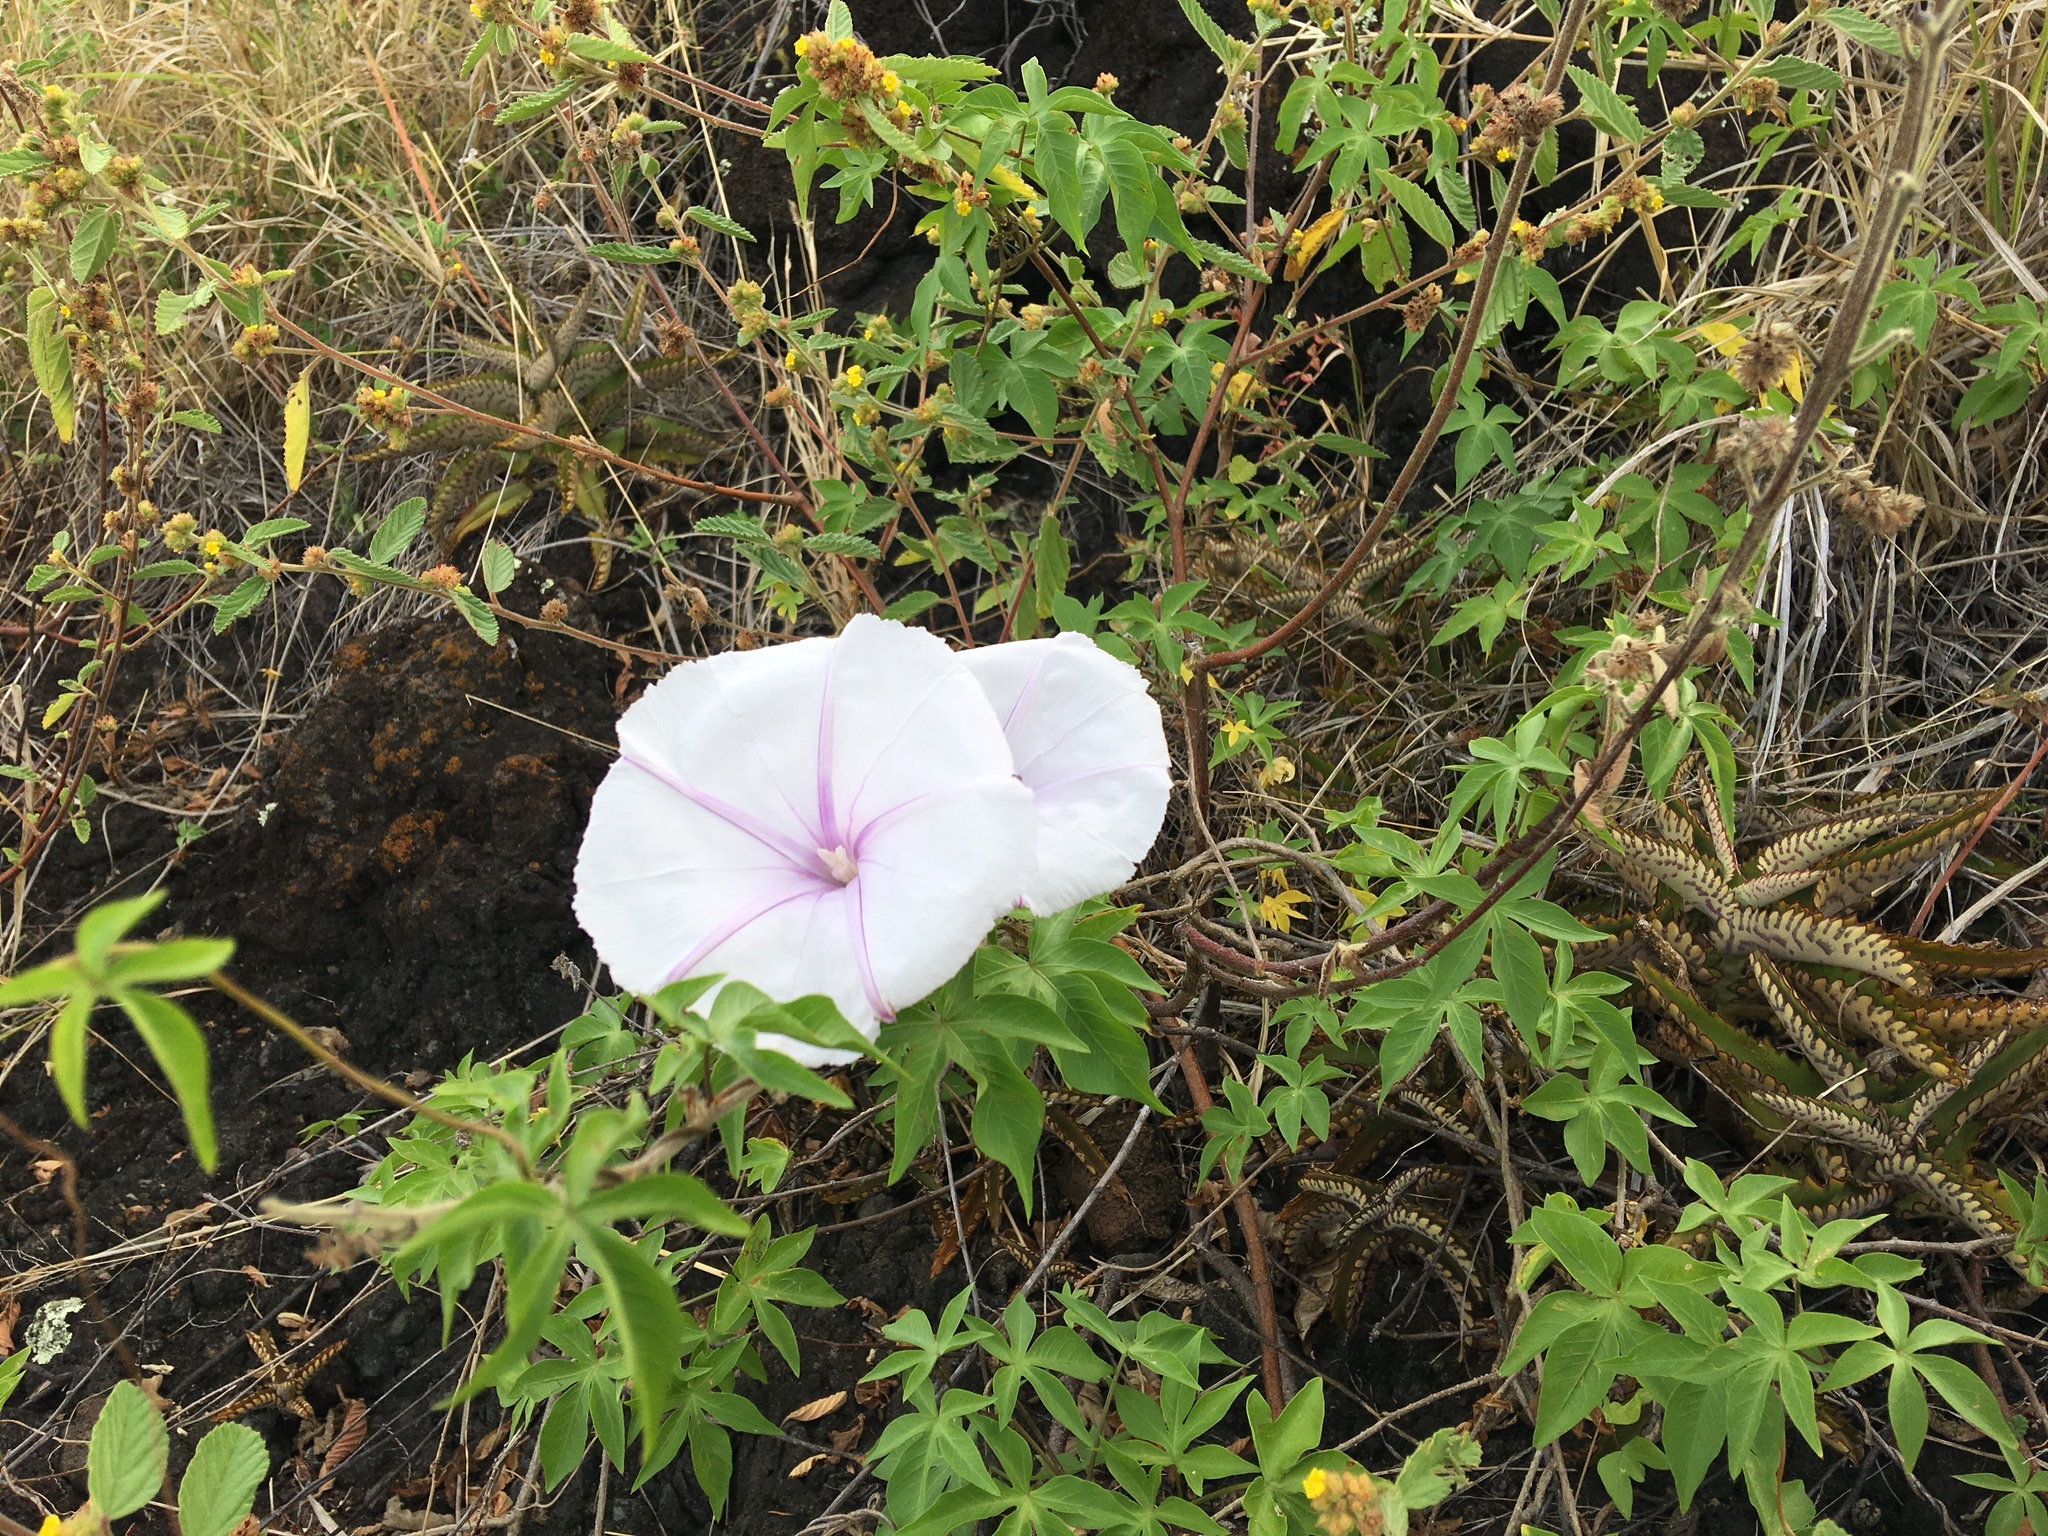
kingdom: Plantae
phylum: Tracheophyta
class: Magnoliopsida
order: Solanales
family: Convolvulaceae
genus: Ipomoea
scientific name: Ipomoea cairica
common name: Mile a minute vine
